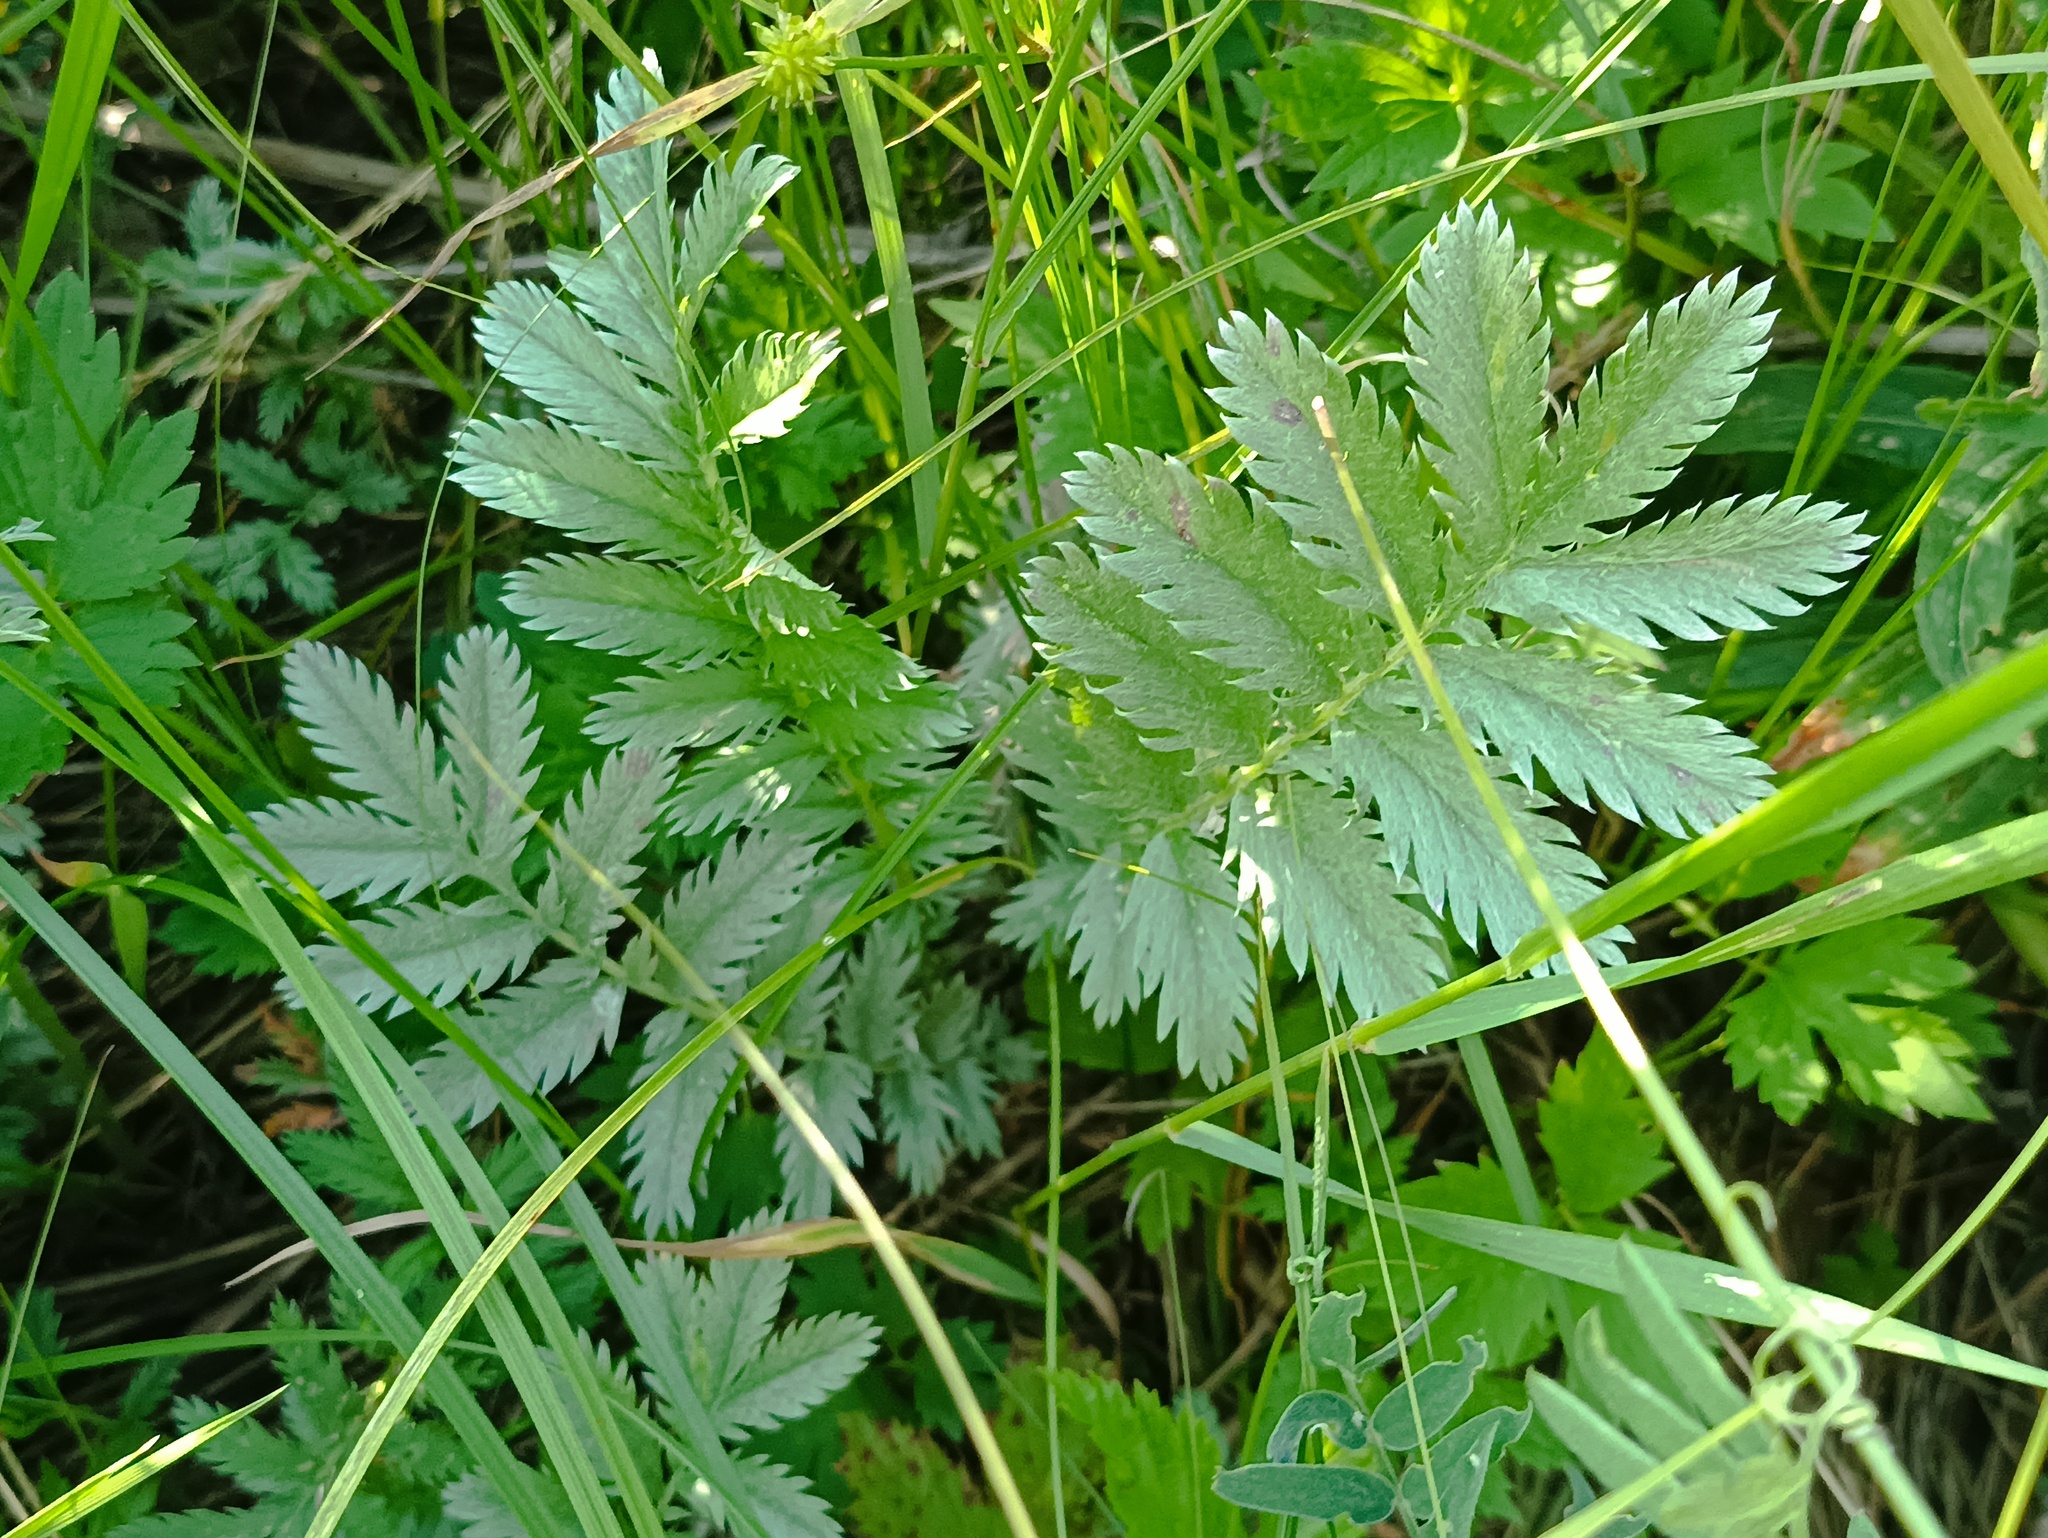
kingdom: Plantae
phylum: Tracheophyta
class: Magnoliopsida
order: Rosales
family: Rosaceae
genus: Argentina
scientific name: Argentina anserina
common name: Common silverweed
